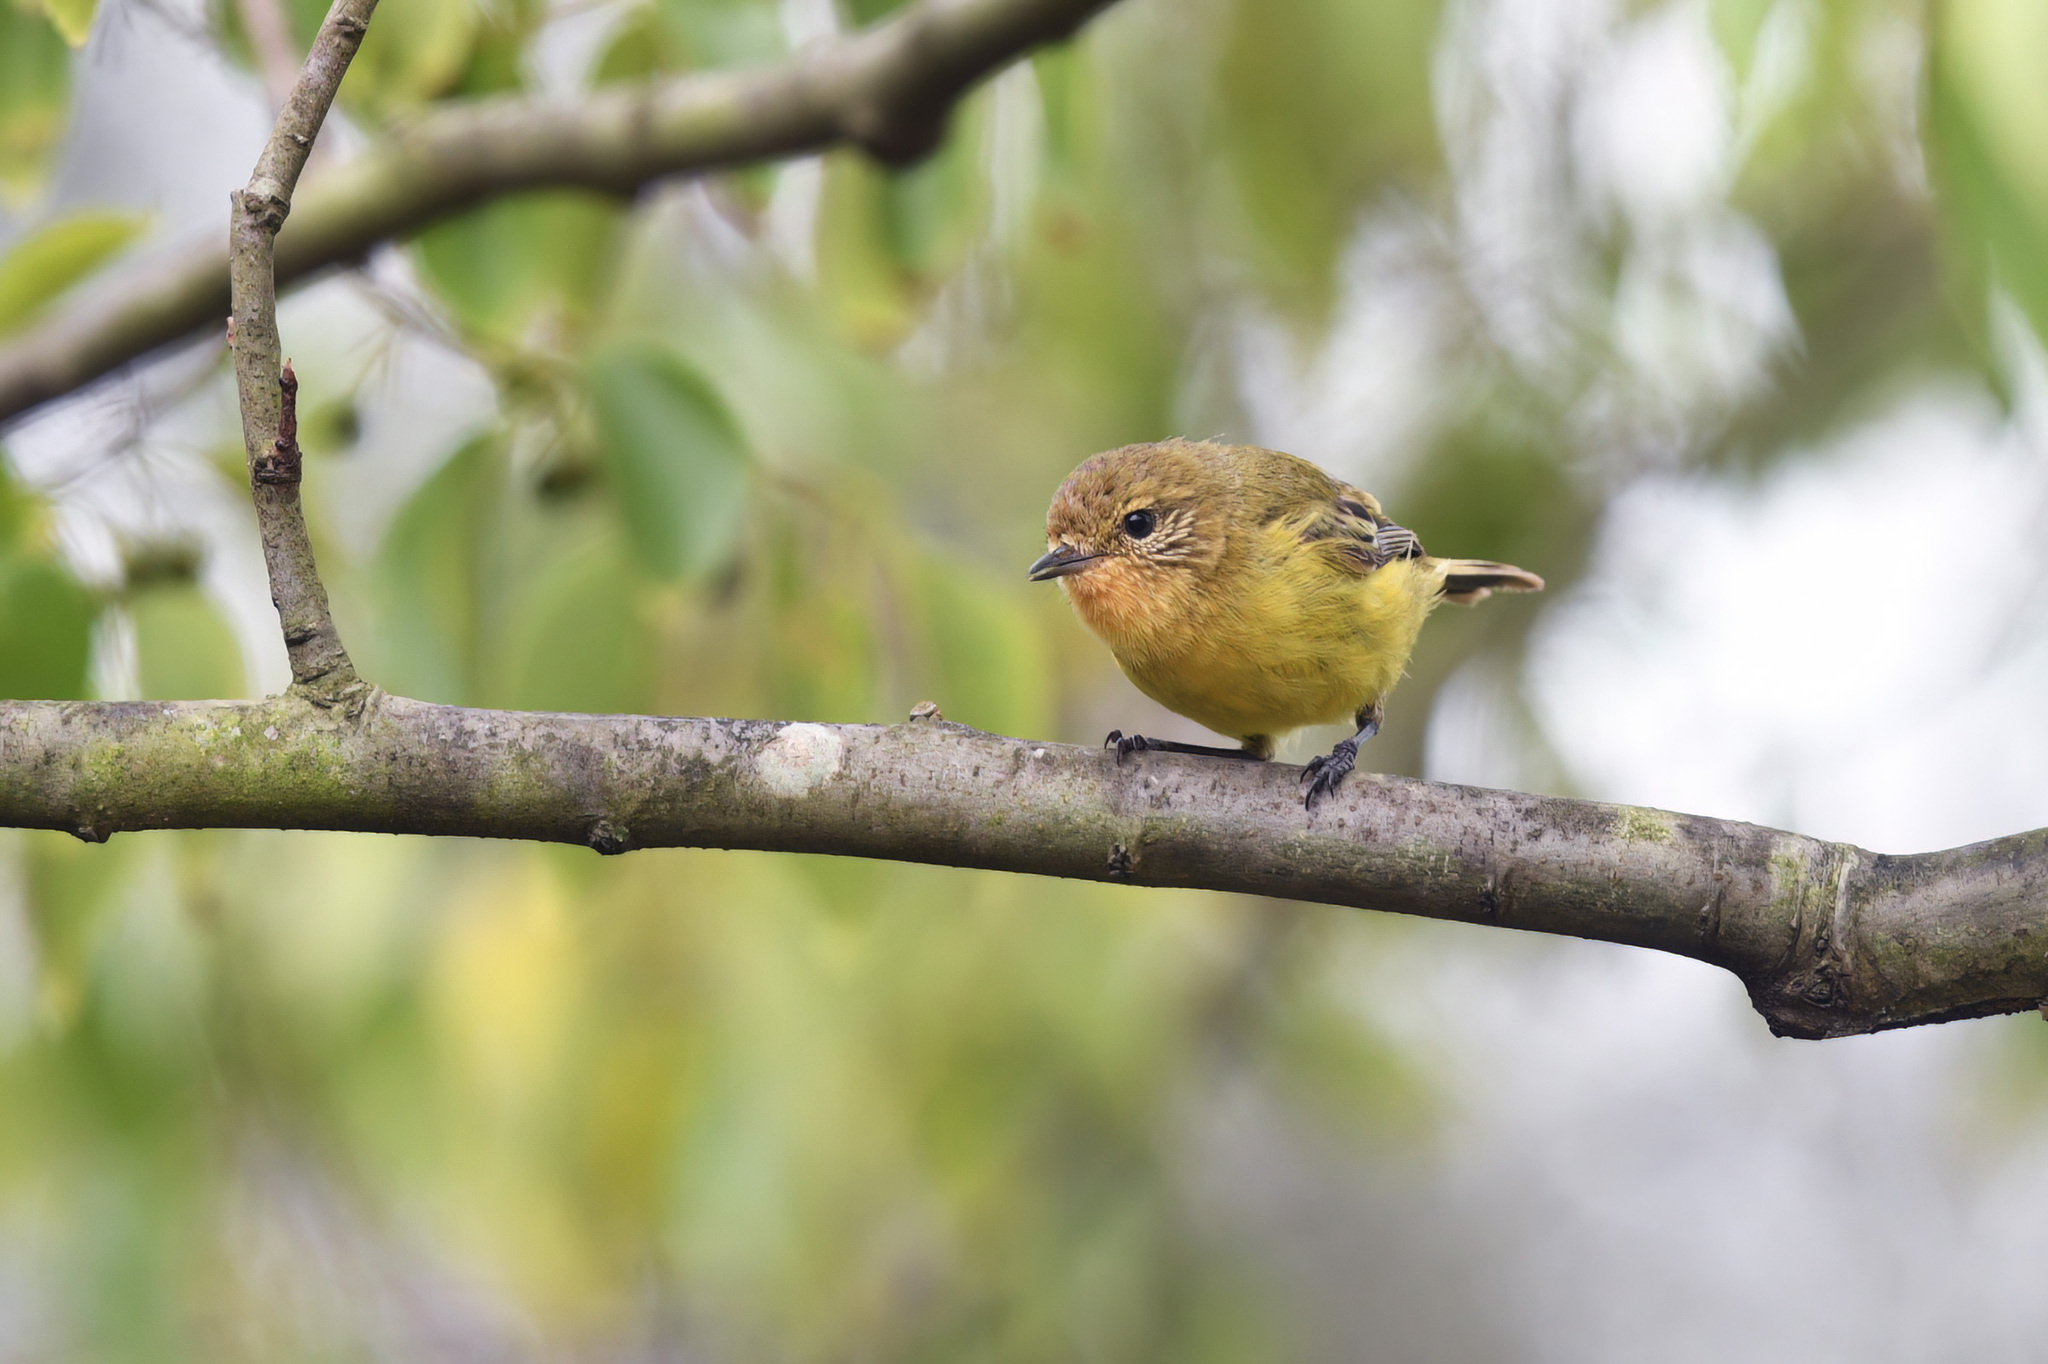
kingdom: Animalia
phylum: Chordata
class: Aves
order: Passeriformes
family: Acanthizidae
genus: Acanthiza
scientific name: Acanthiza nana
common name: Yellow thornbill
